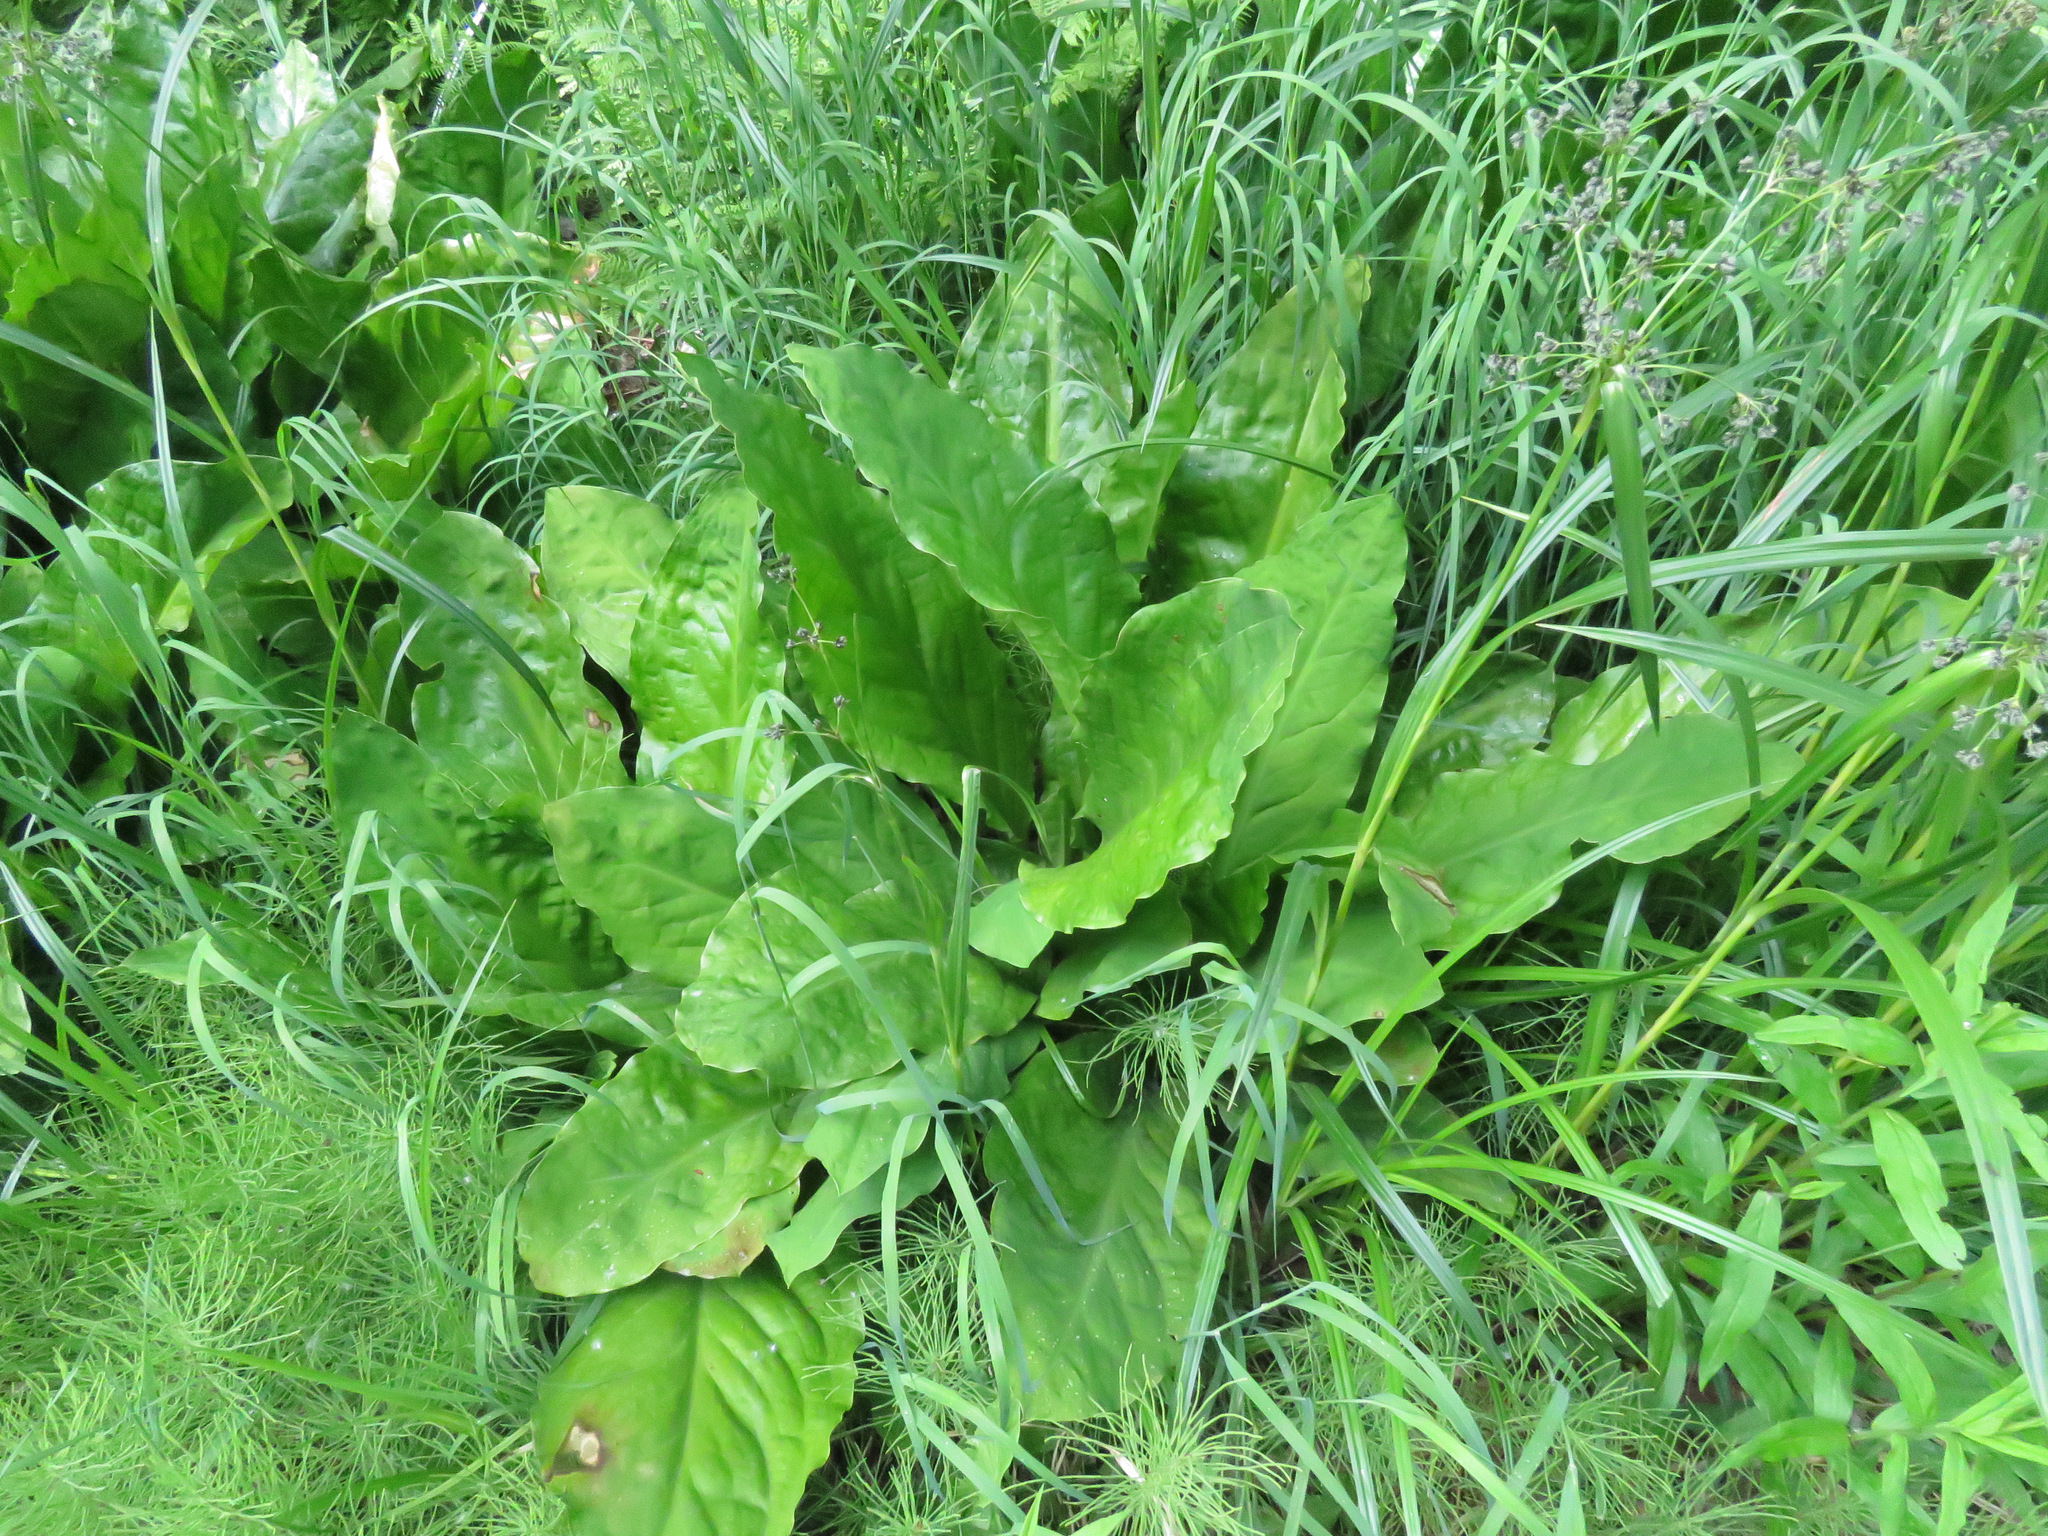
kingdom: Plantae
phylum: Tracheophyta
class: Liliopsida
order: Alismatales
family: Araceae
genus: Lysichiton
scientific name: Lysichiton americanus
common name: American skunk cabbage
